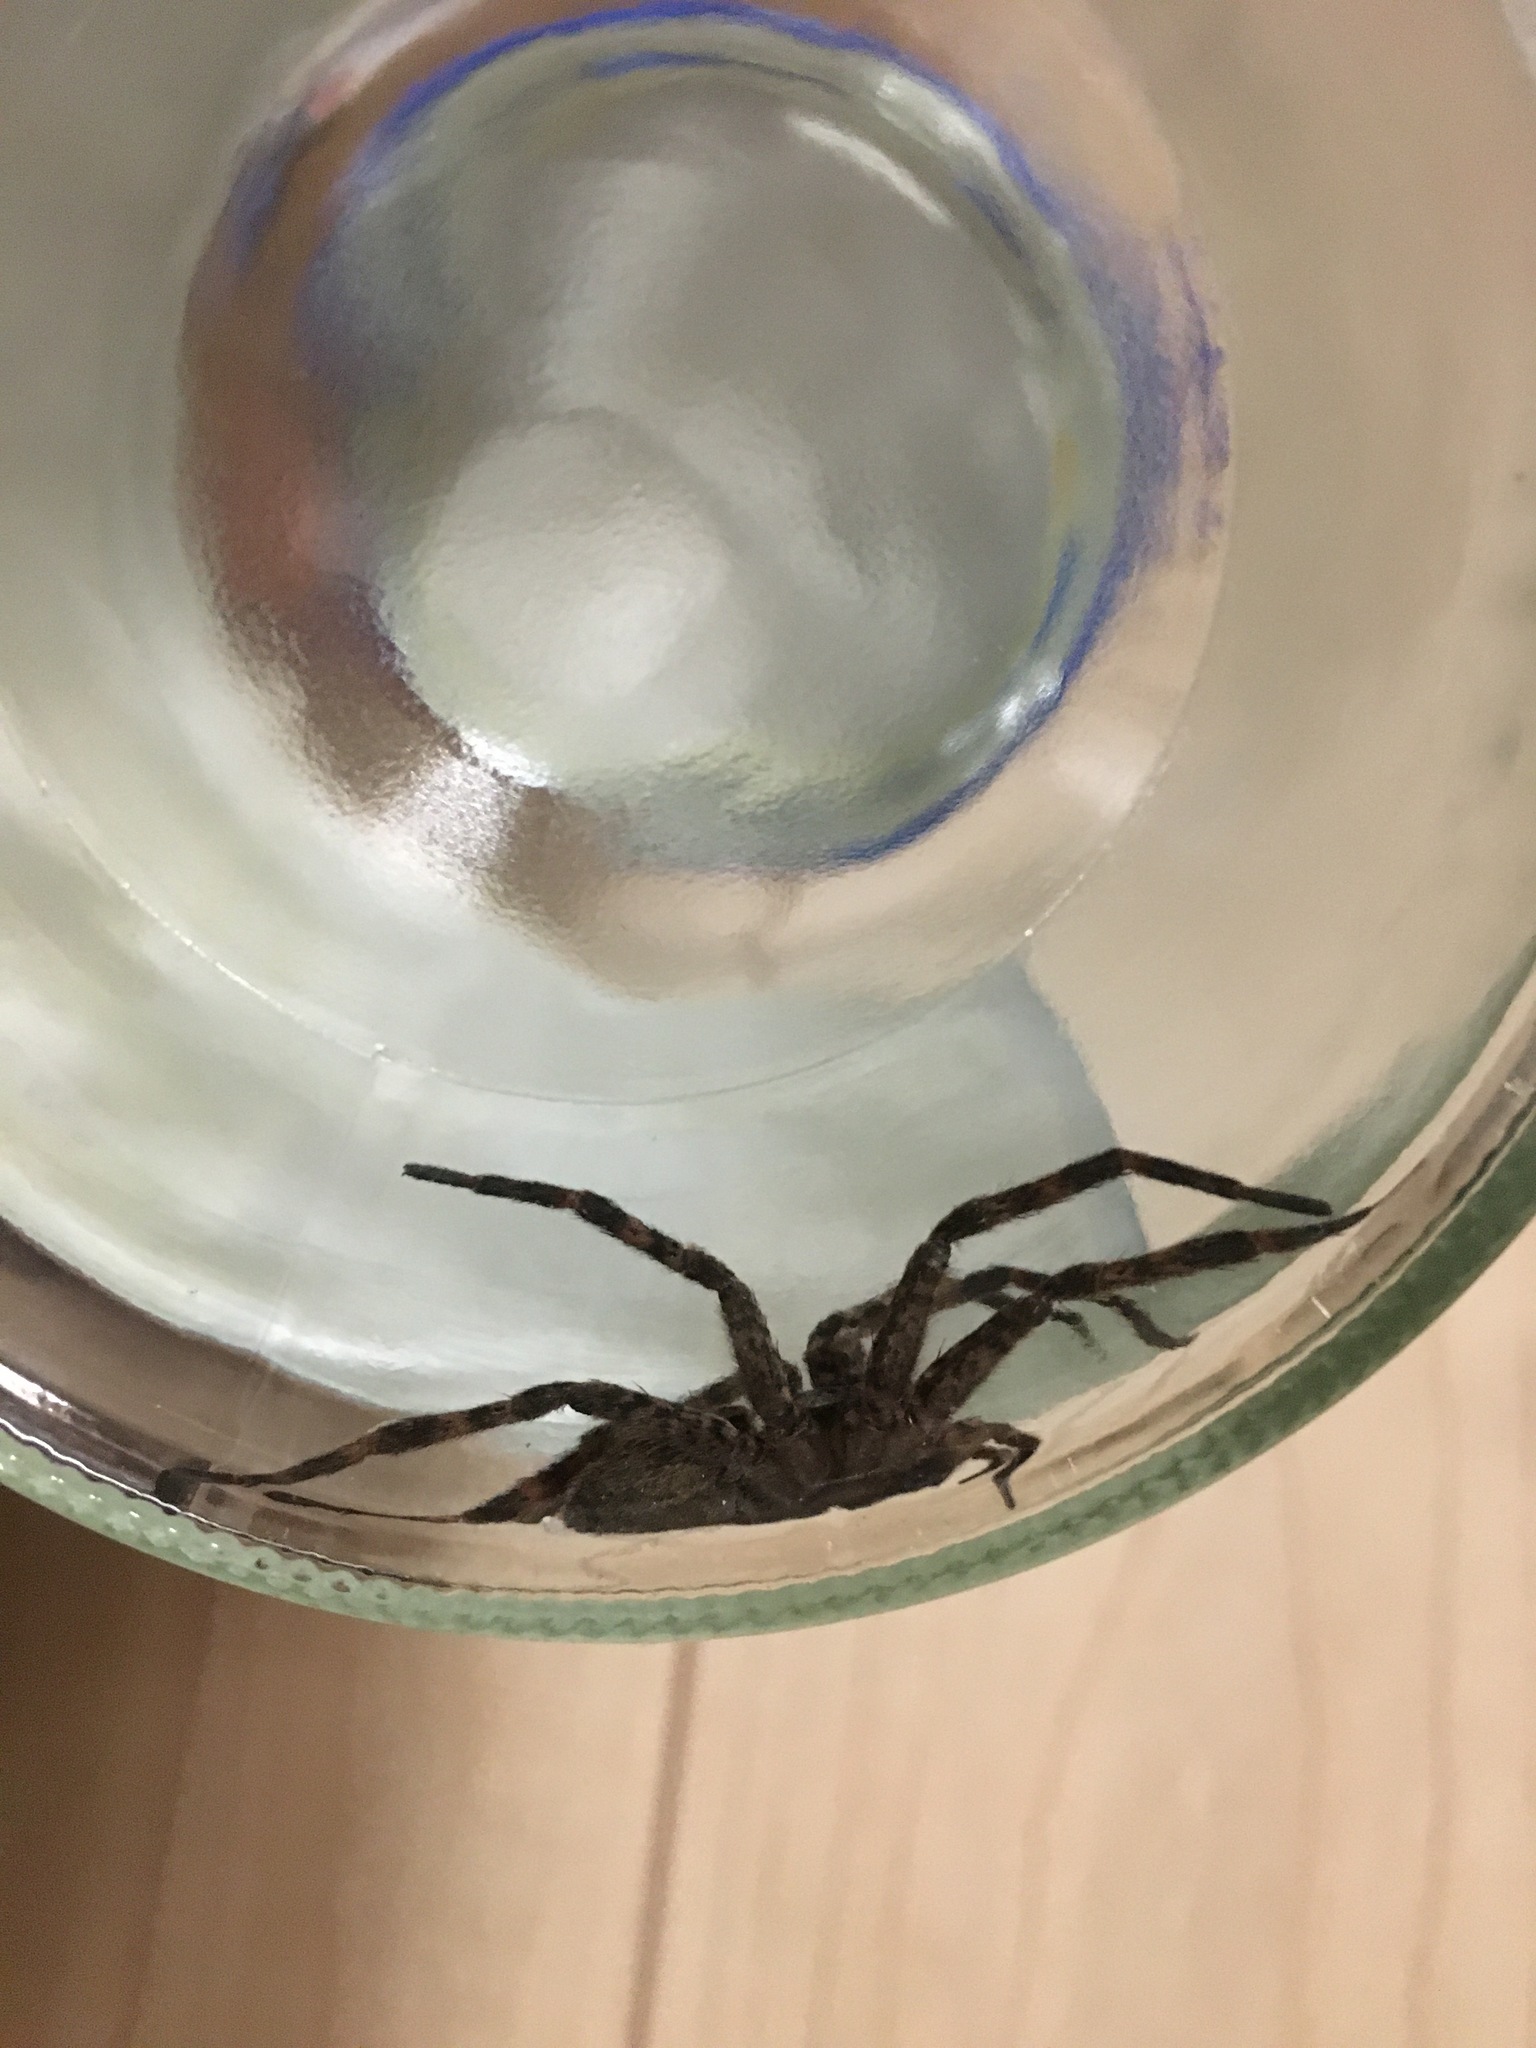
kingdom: Animalia
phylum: Arthropoda
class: Arachnida
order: Araneae
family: Pisauridae
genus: Dolomedes
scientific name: Dolomedes tenebrosus
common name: Dark fishing spider
